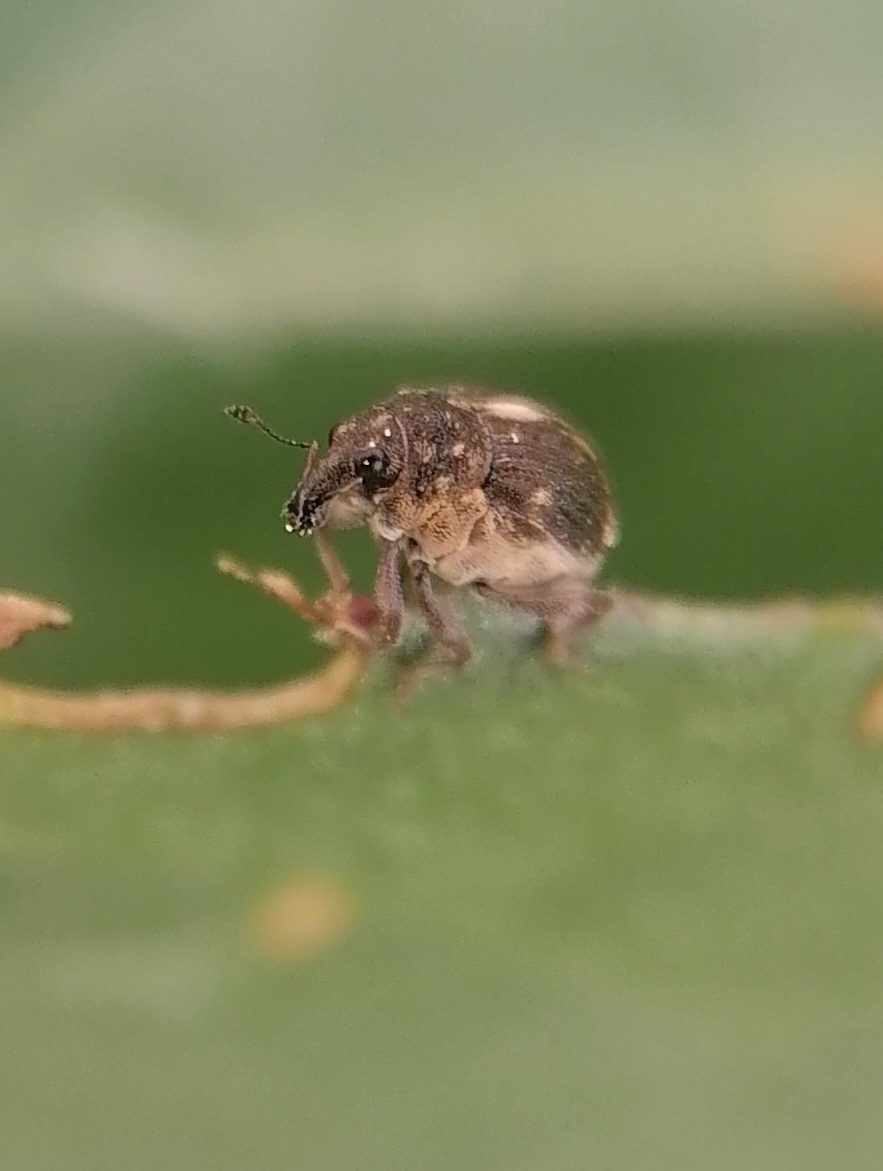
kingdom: Animalia
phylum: Arthropoda
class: Insecta
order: Coleoptera
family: Curculionidae
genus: Rhinoncus
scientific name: Rhinoncus leucostigma
